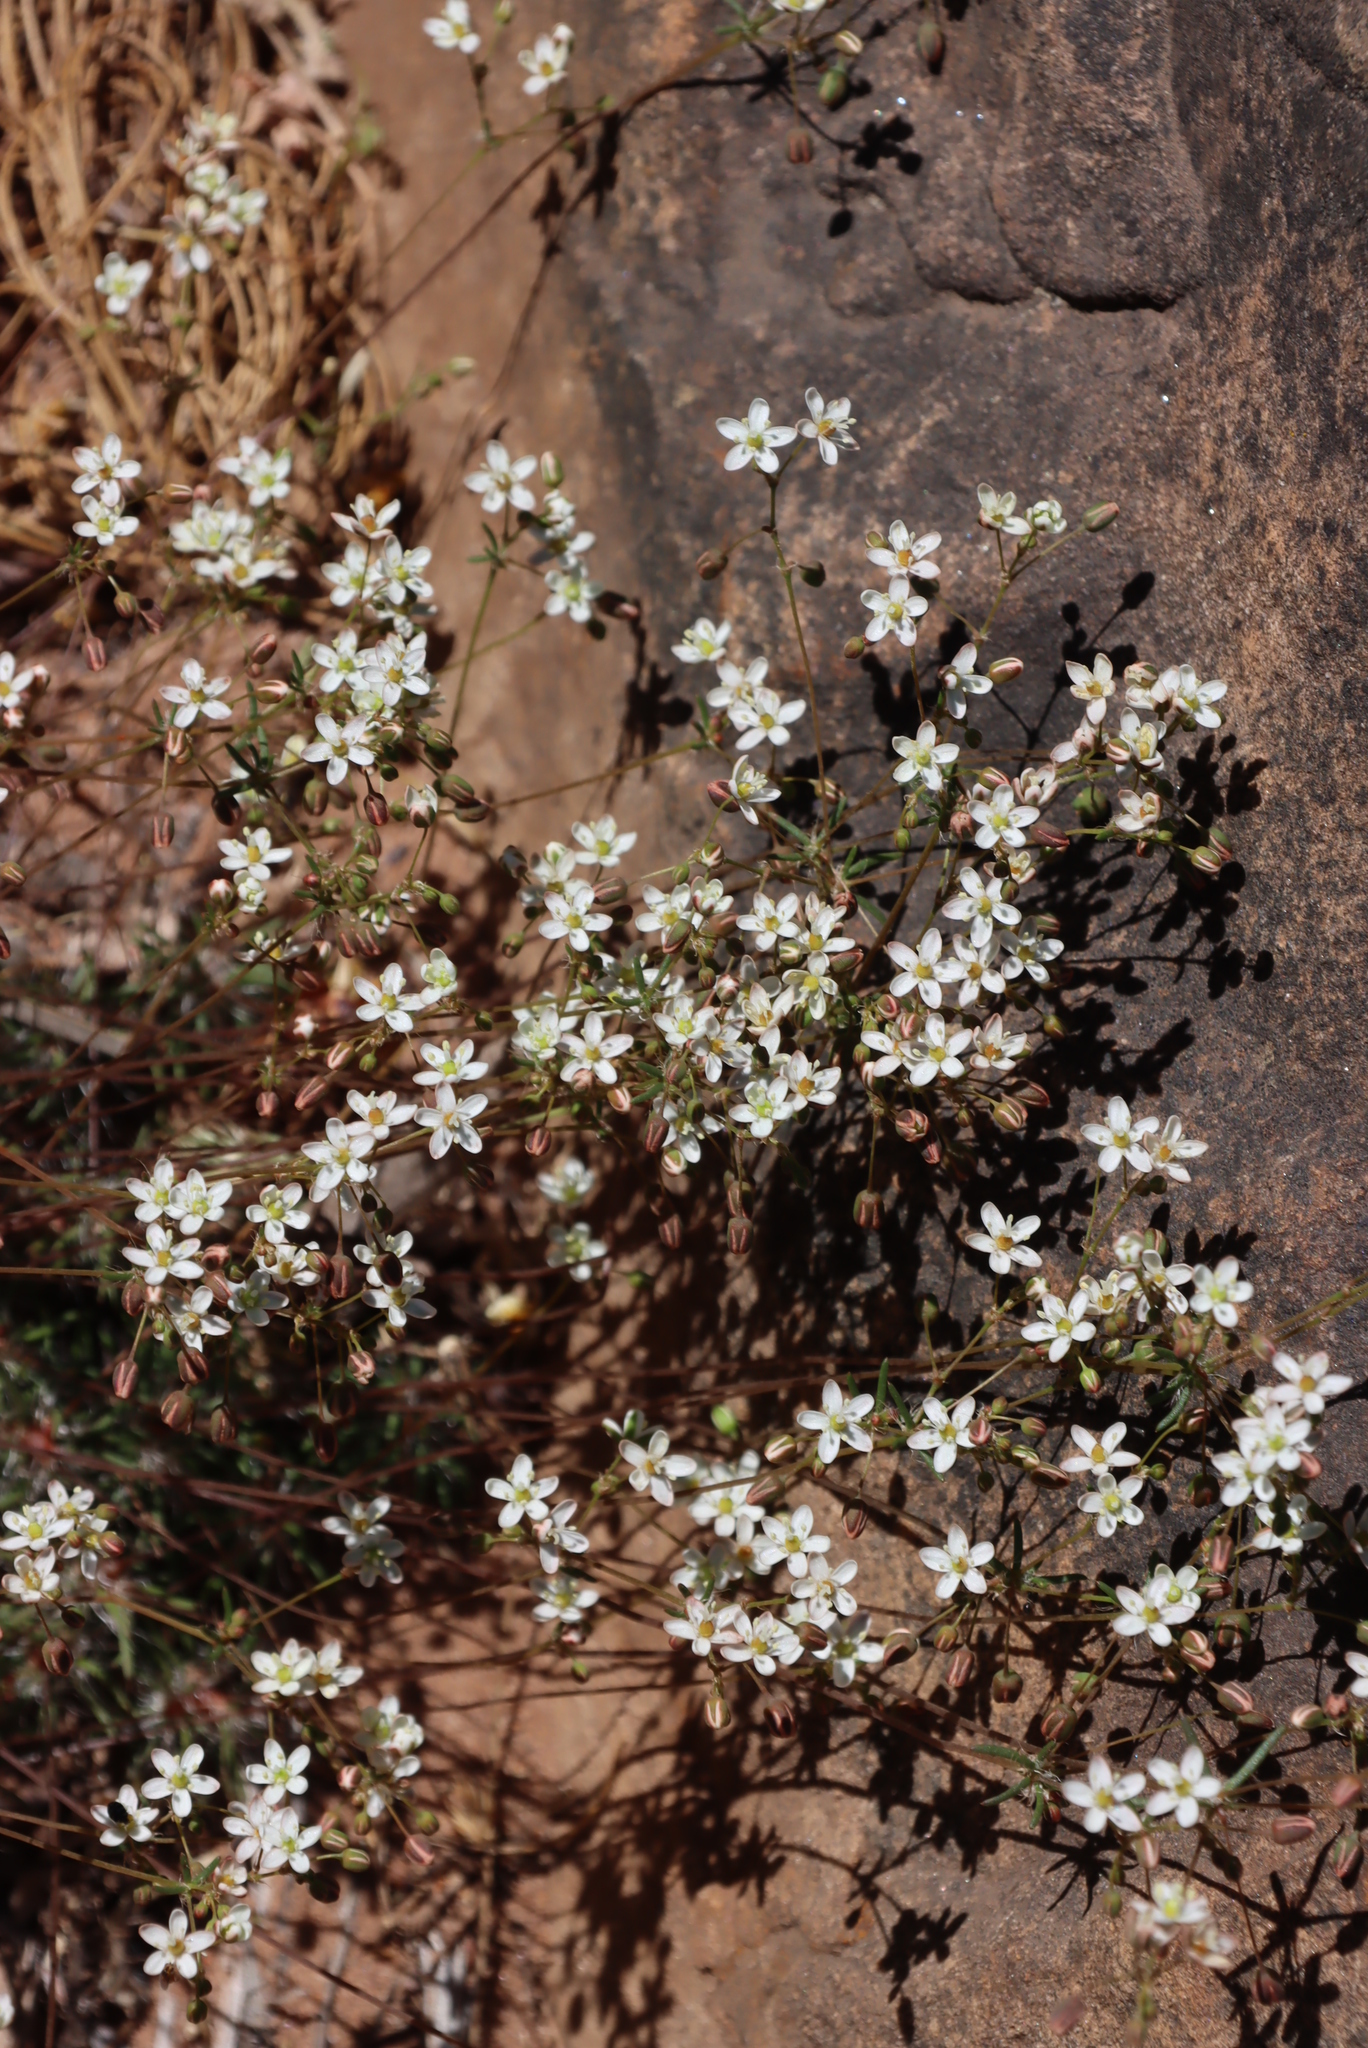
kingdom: Plantae
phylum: Tracheophyta
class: Magnoliopsida
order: Caryophyllales
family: Molluginaceae
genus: Pharnaceum
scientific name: Pharnaceum elongatum
